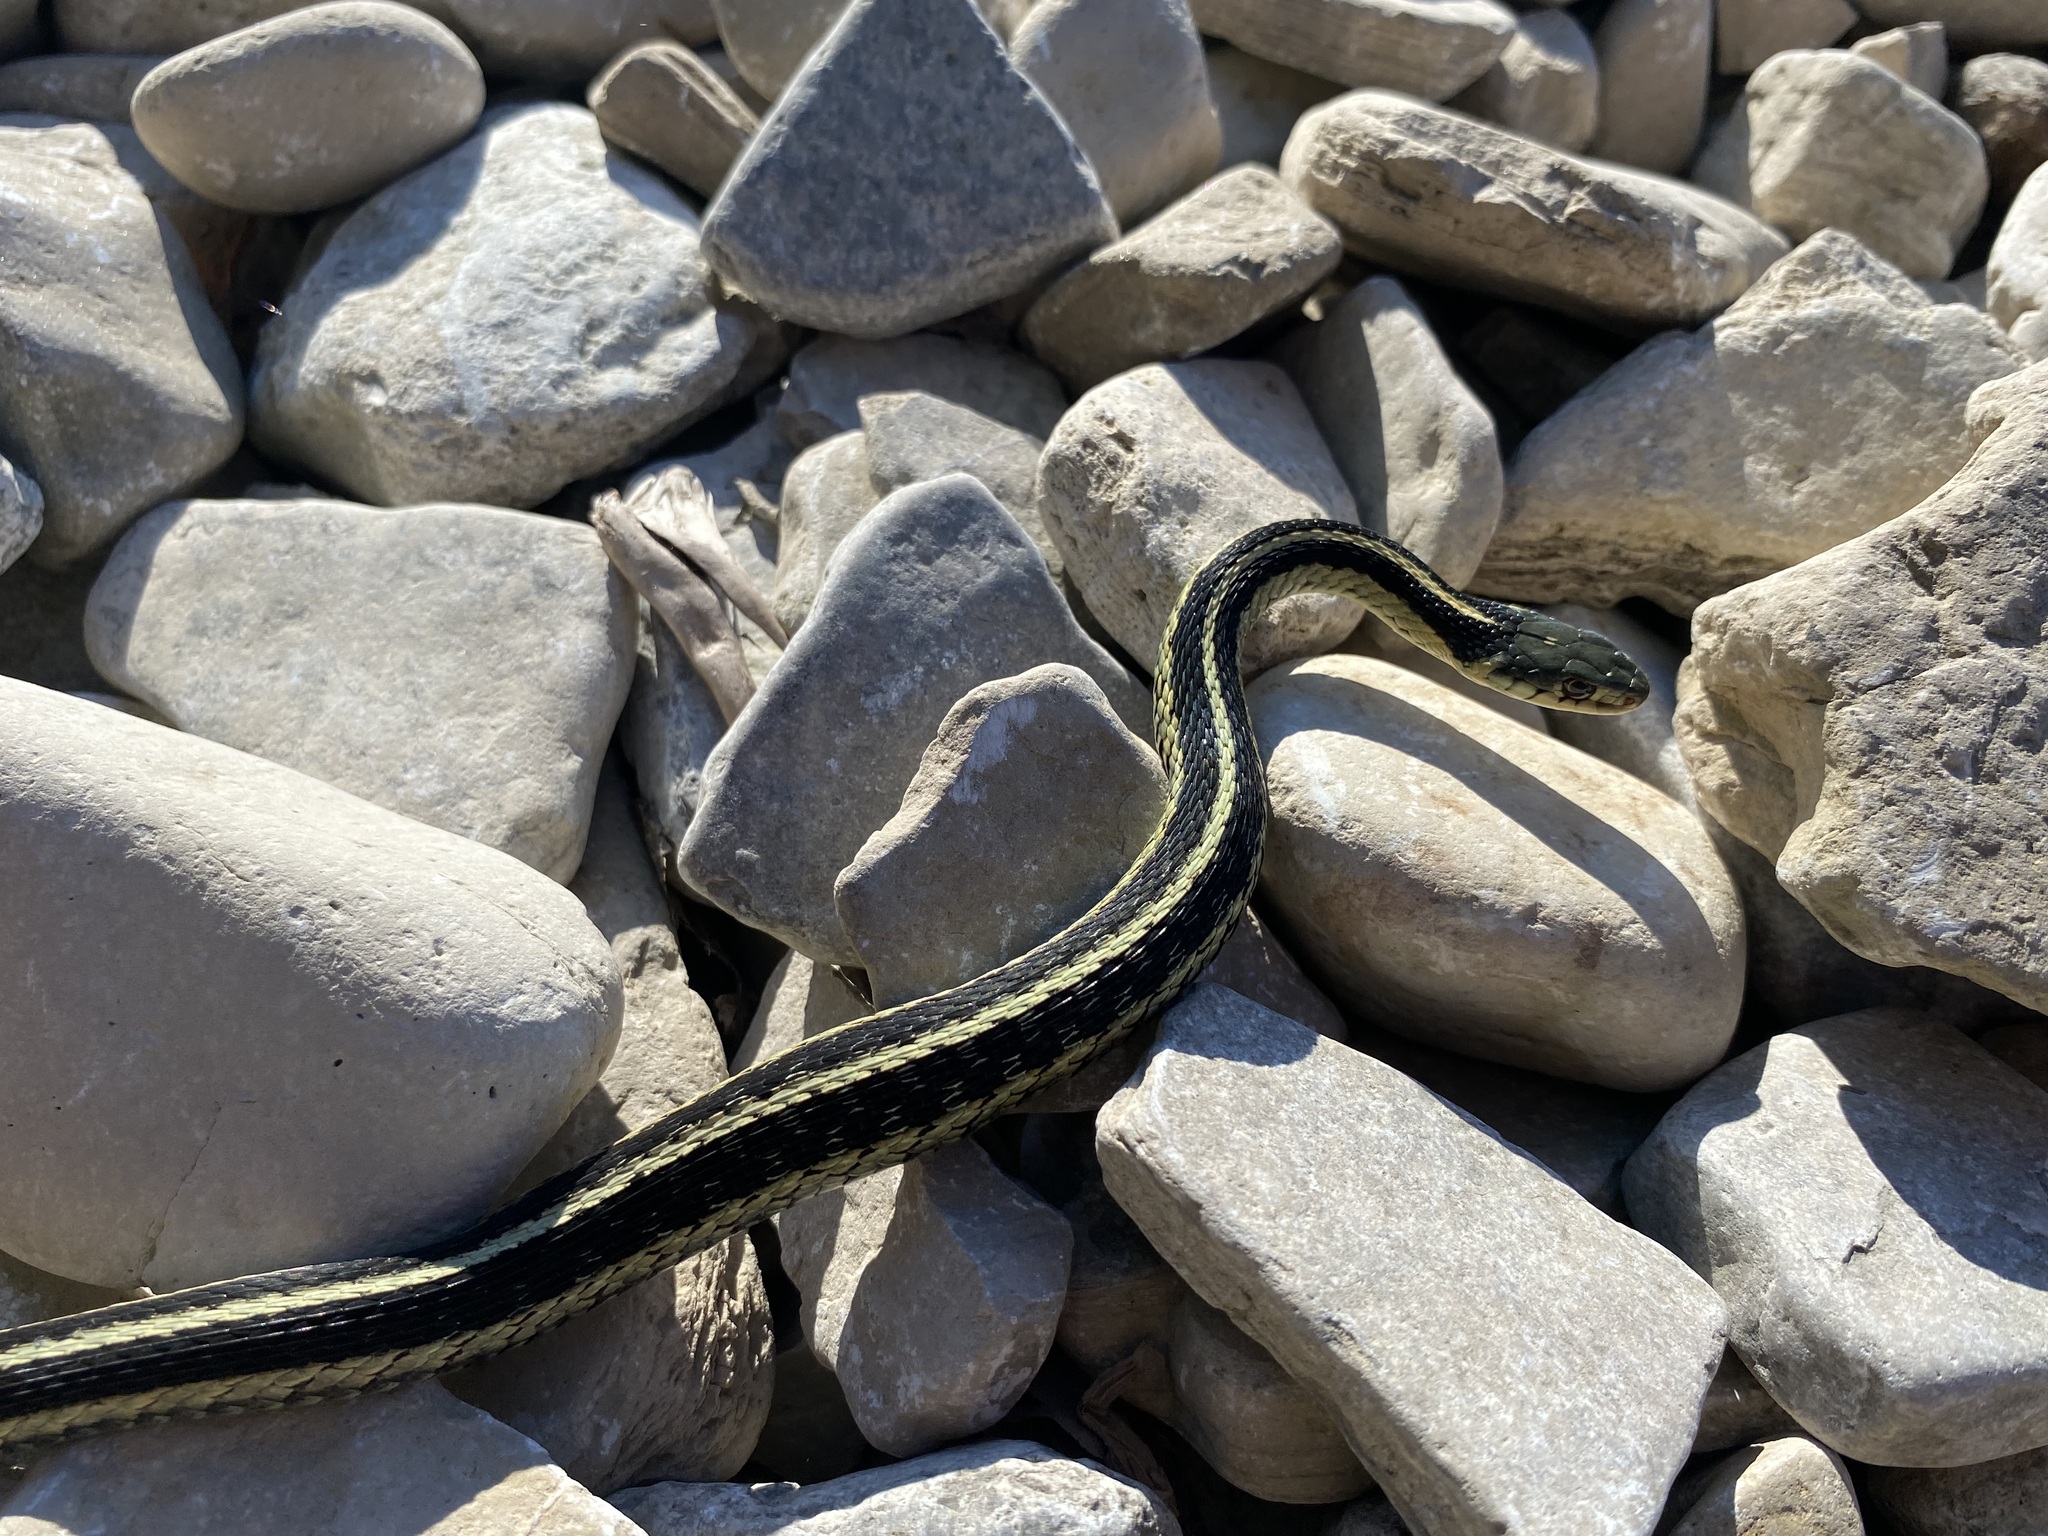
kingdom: Animalia
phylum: Chordata
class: Squamata
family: Colubridae
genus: Thamnophis
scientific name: Thamnophis sirtalis
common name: Common garter snake
